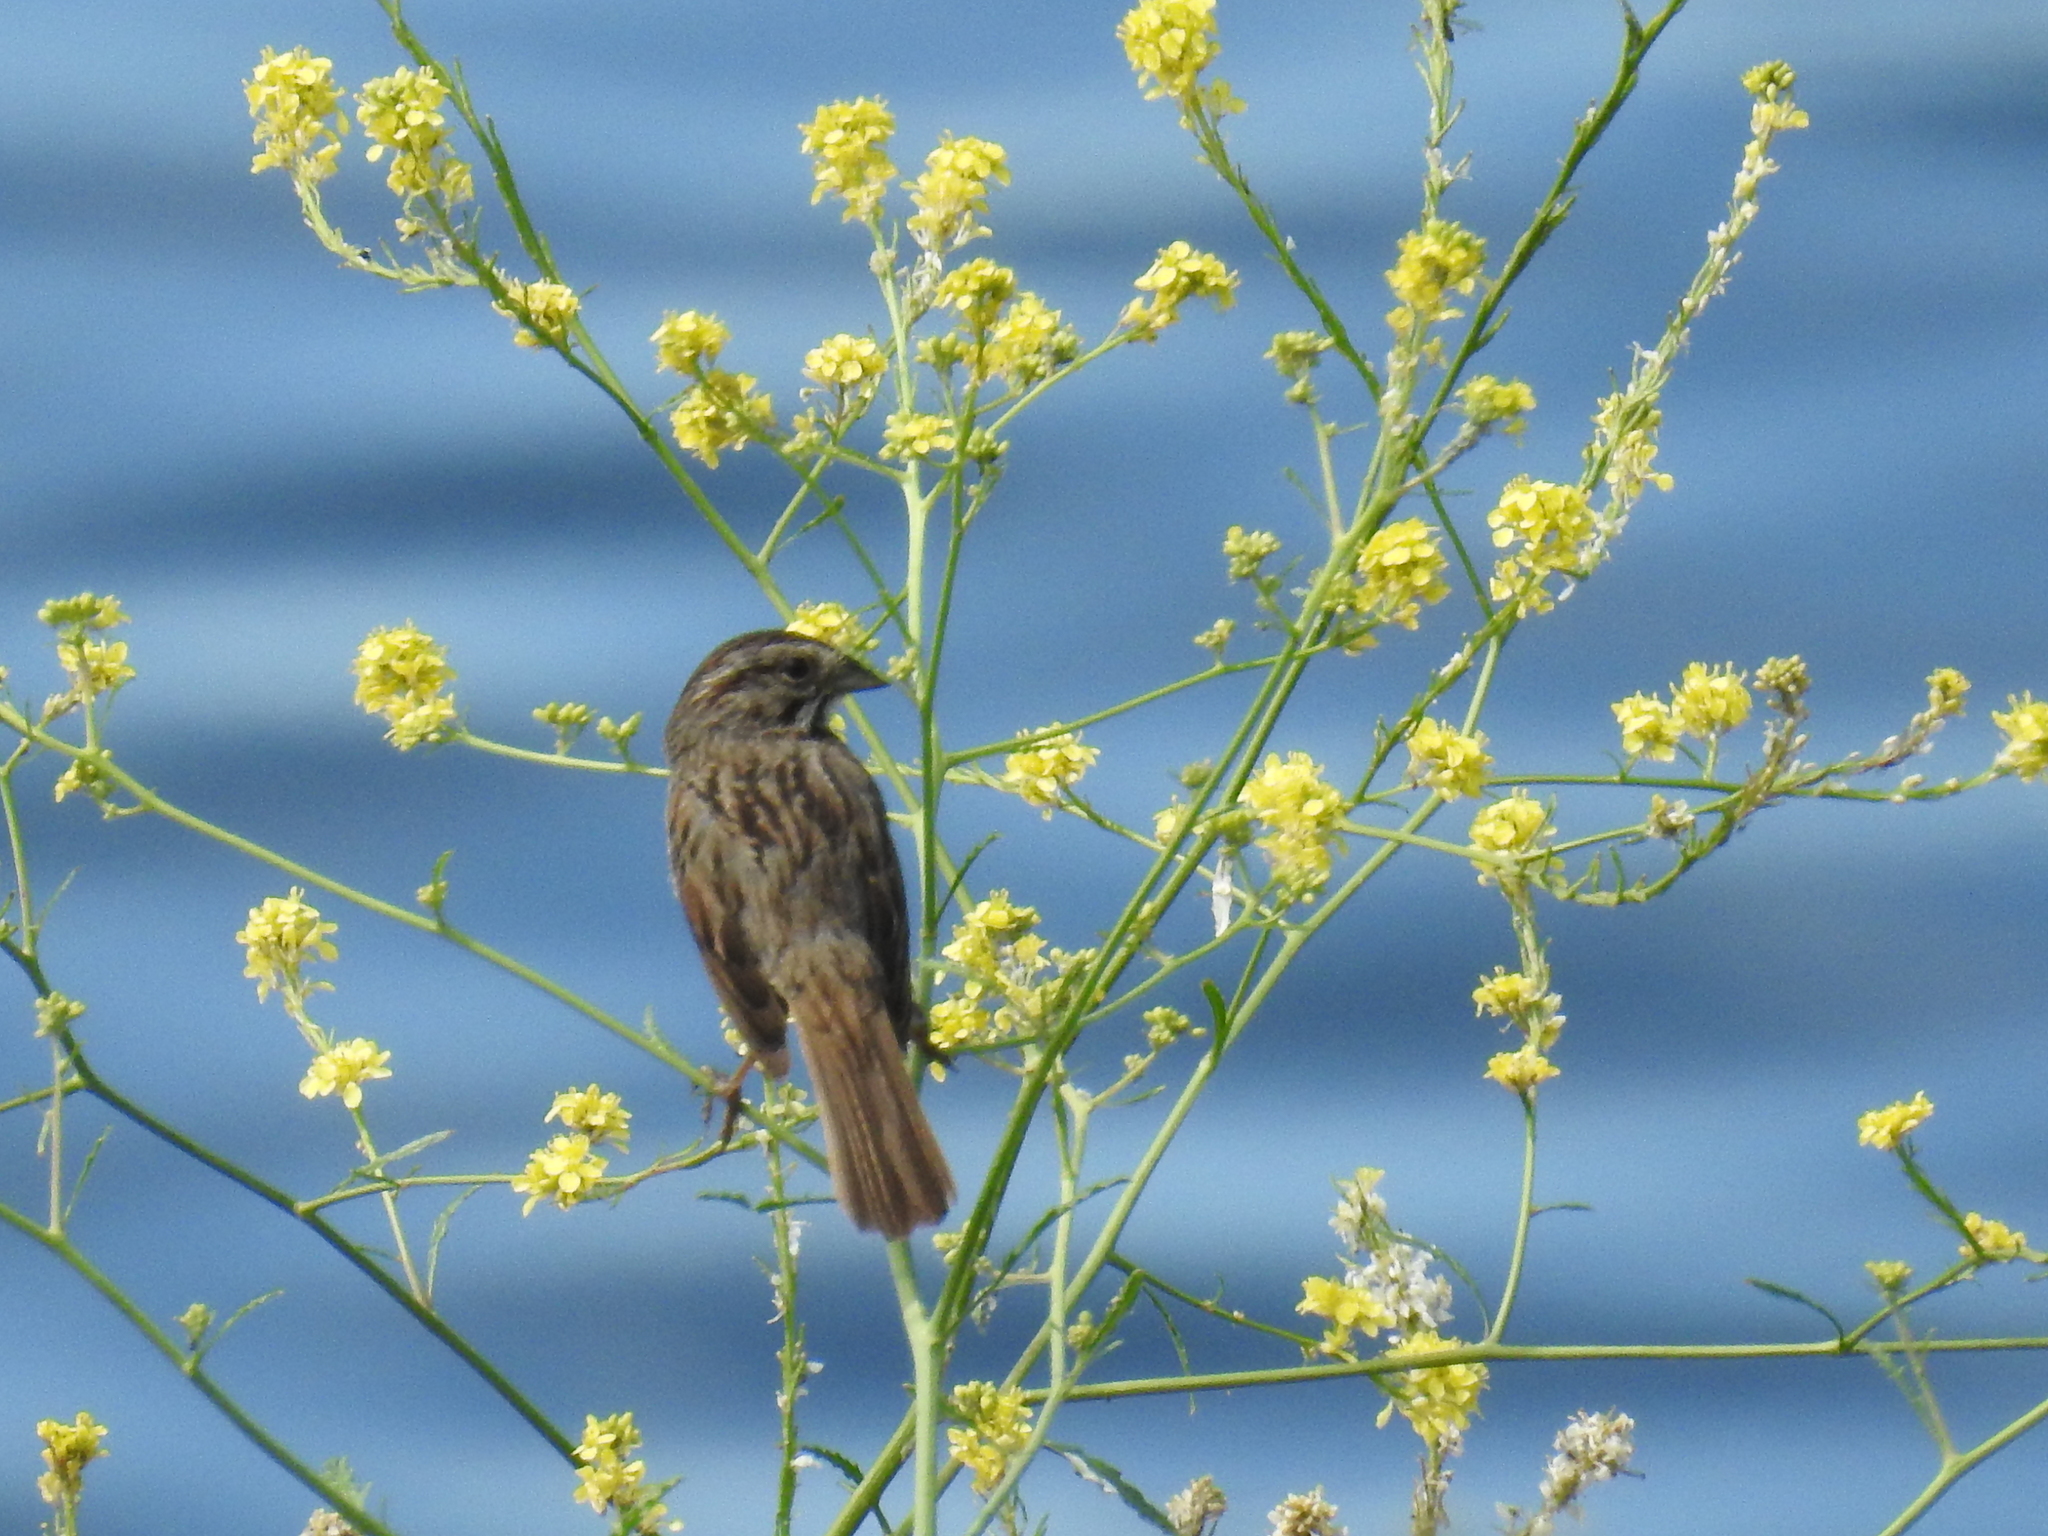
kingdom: Animalia
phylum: Chordata
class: Aves
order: Passeriformes
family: Passerellidae
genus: Melospiza
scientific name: Melospiza melodia
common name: Song sparrow
